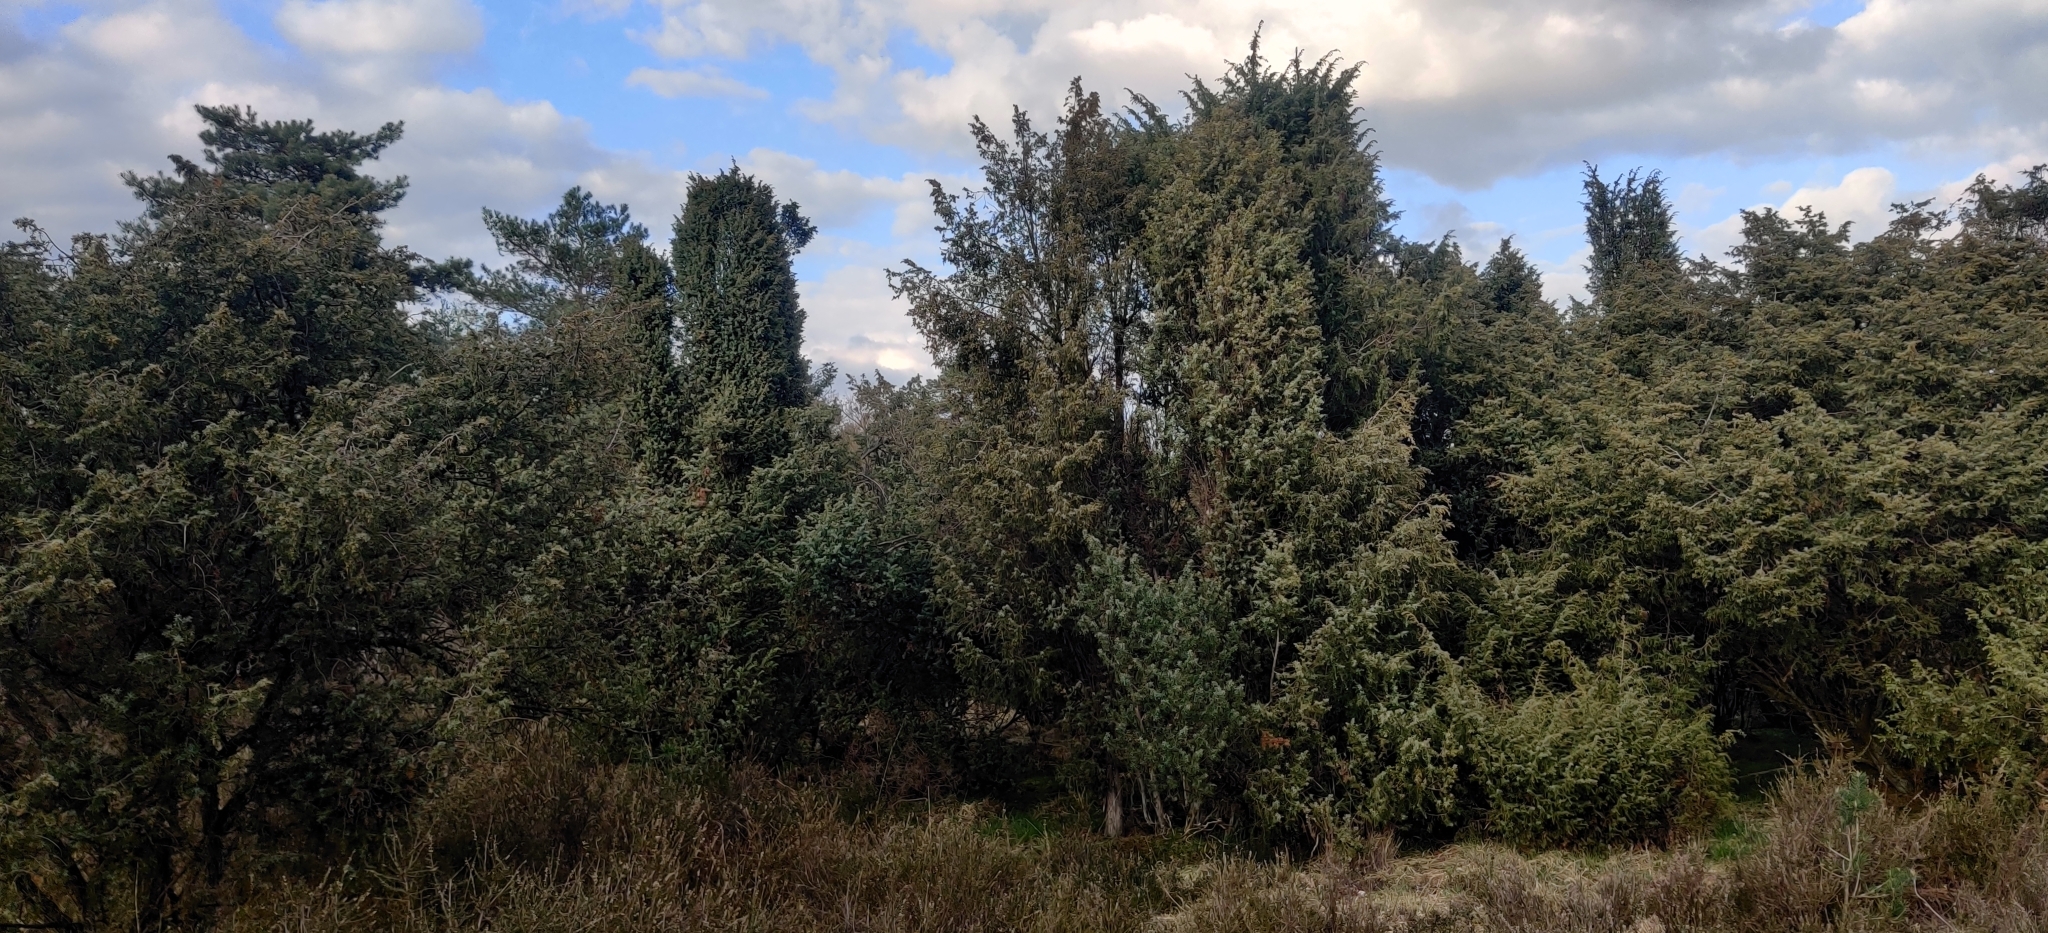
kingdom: Plantae
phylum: Tracheophyta
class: Pinopsida
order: Pinales
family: Cupressaceae
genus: Juniperus
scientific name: Juniperus communis
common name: Common juniper
